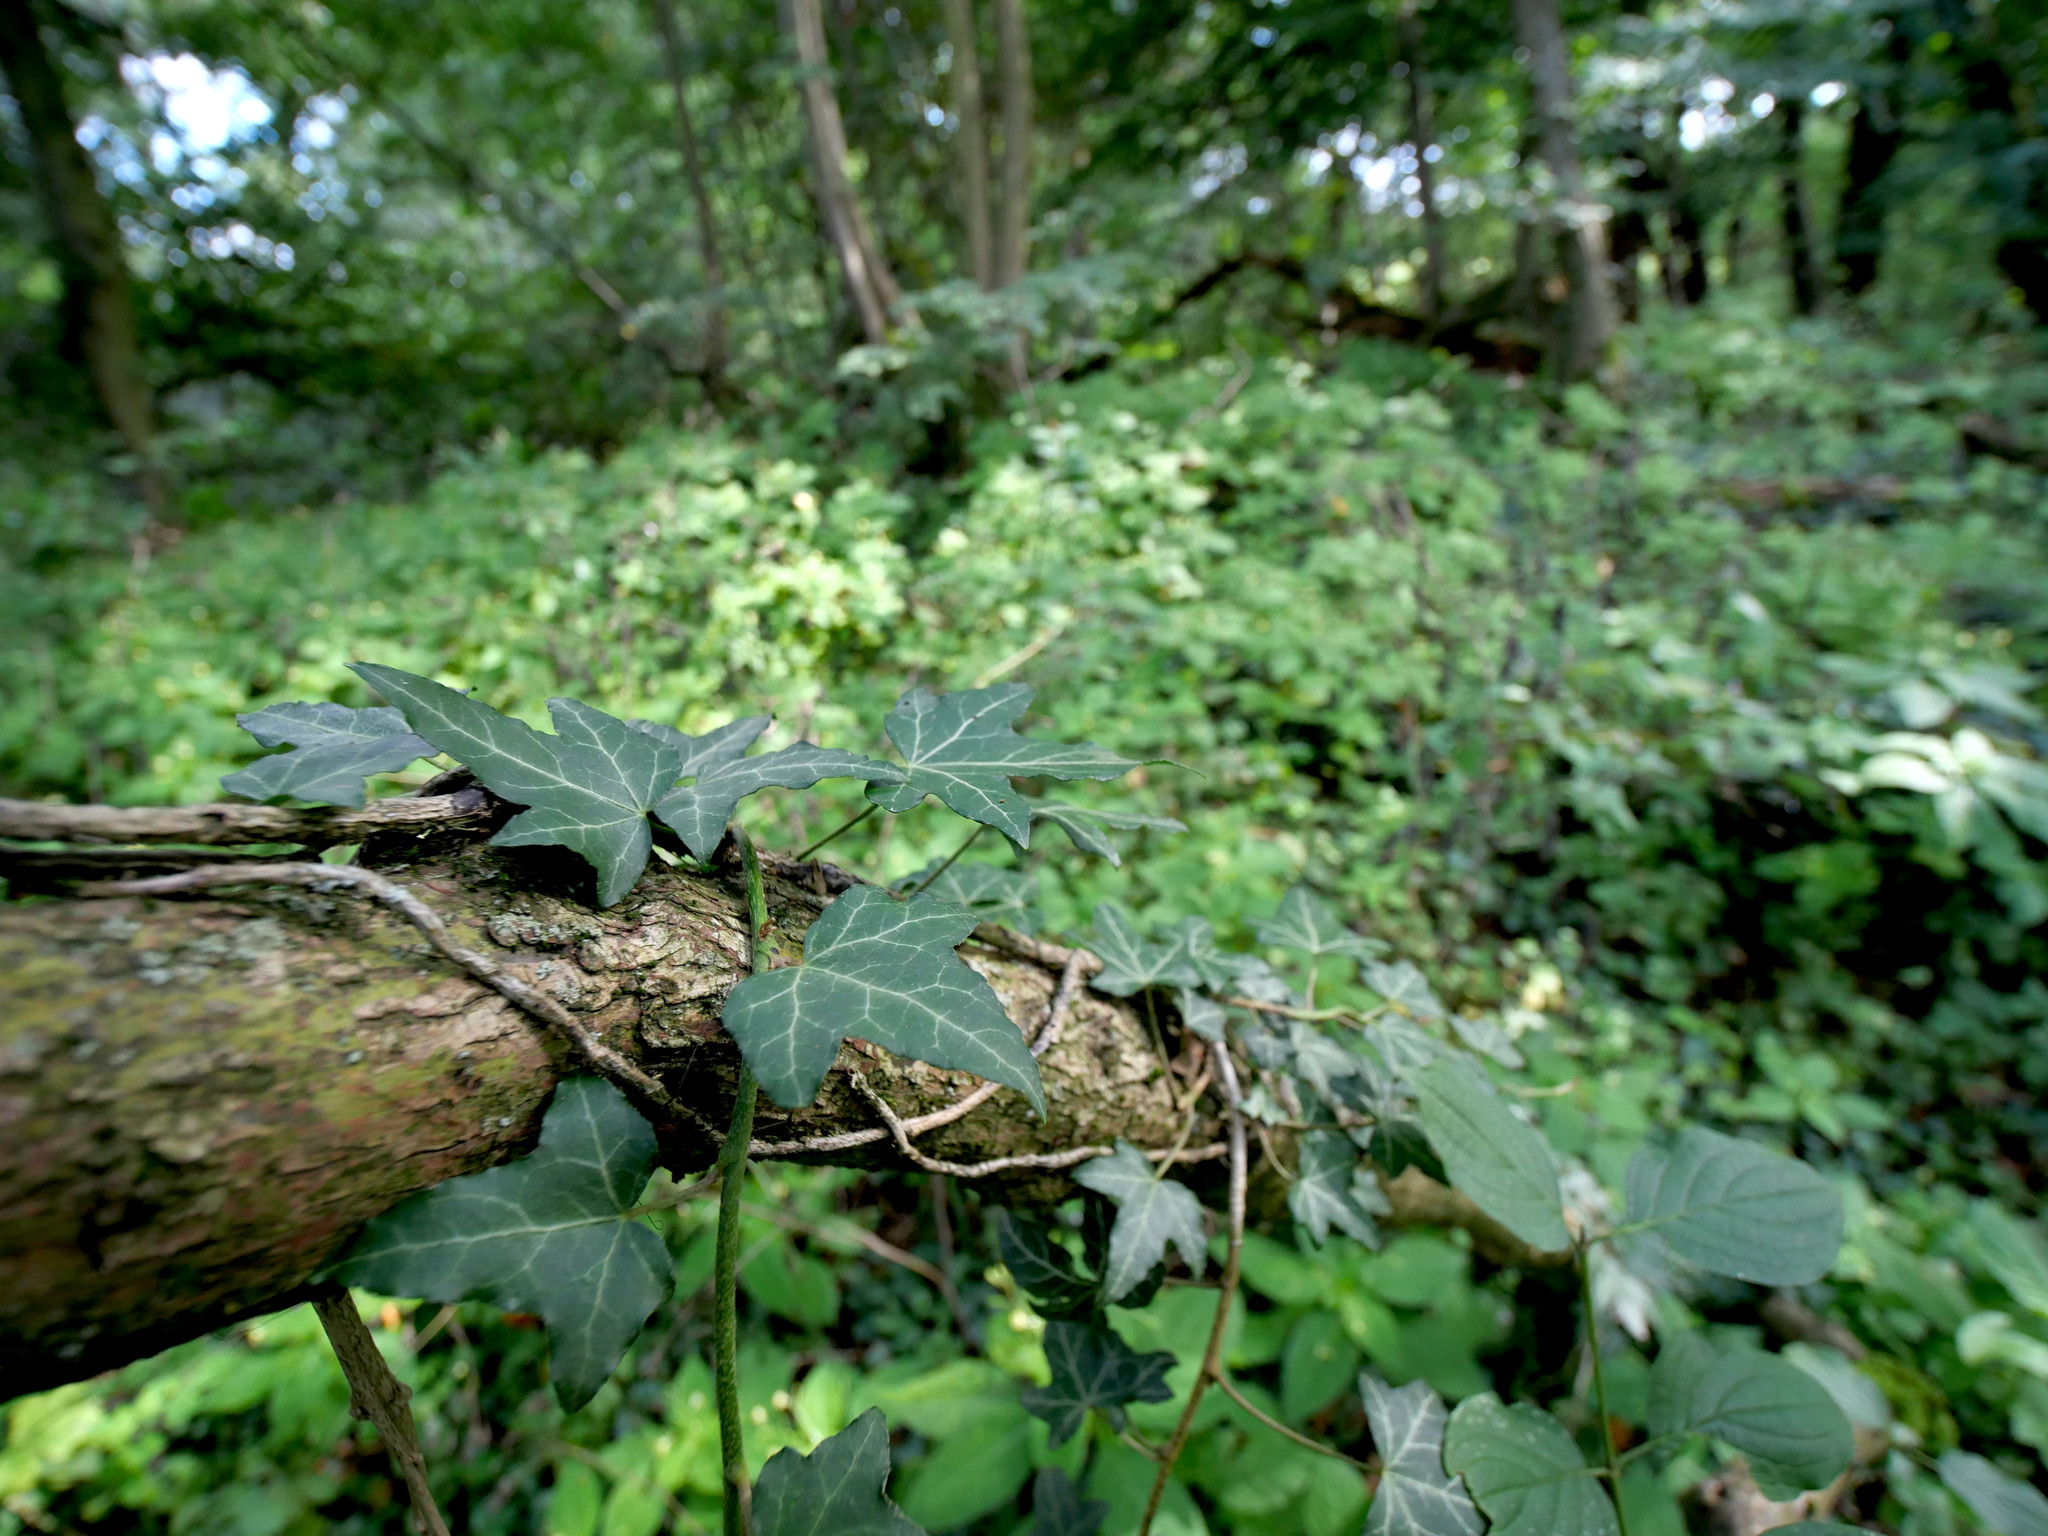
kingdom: Plantae
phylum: Tracheophyta
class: Magnoliopsida
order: Apiales
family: Araliaceae
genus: Hedera
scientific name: Hedera helix
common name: Ivy
